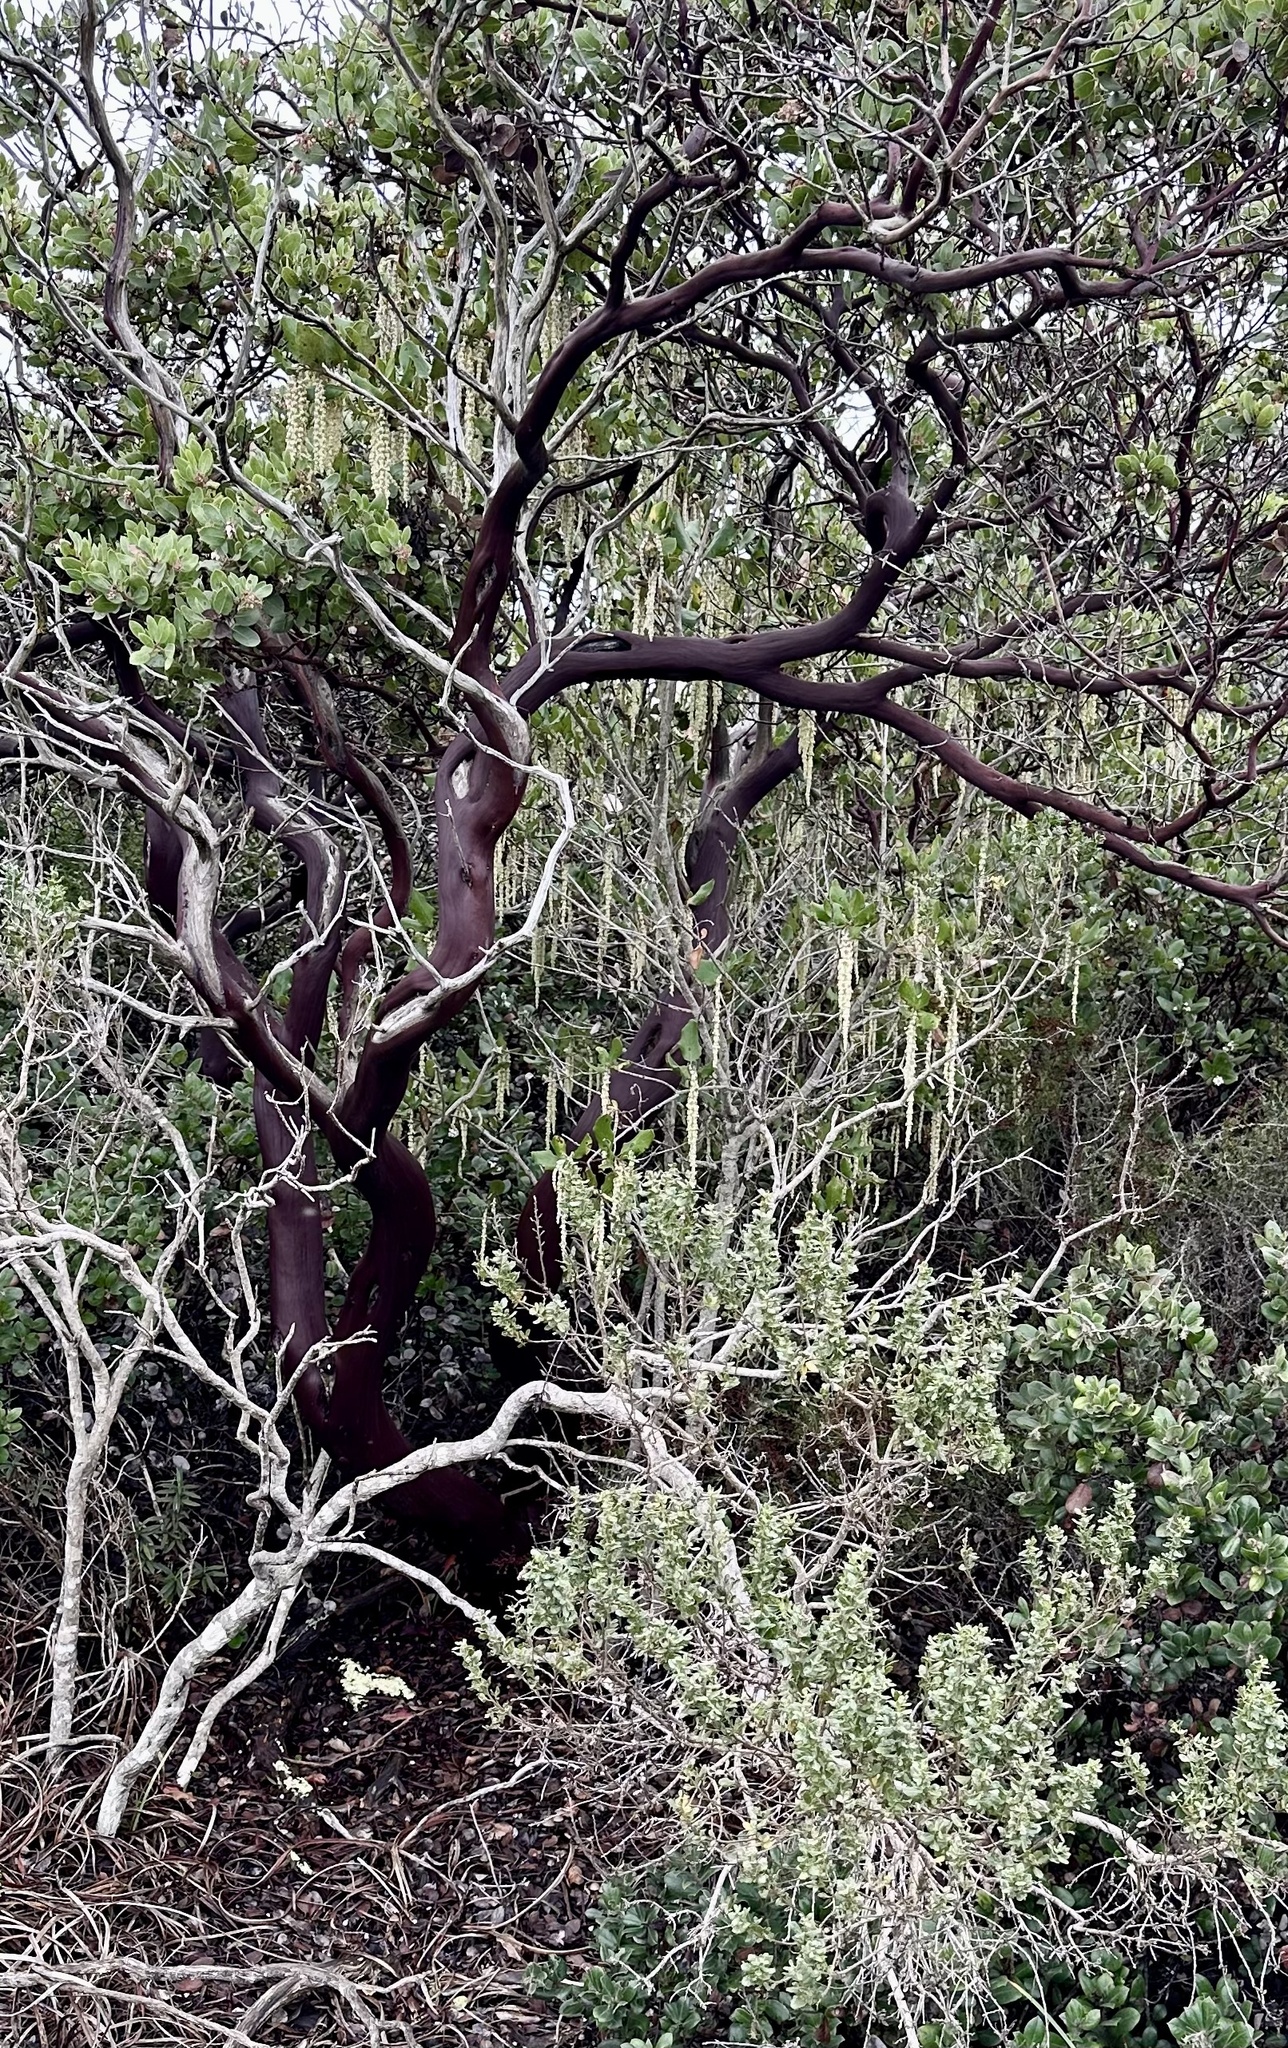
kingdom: Plantae
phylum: Tracheophyta
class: Magnoliopsida
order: Garryales
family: Garryaceae
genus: Garrya
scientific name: Garrya elliptica
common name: Silk-tassel
